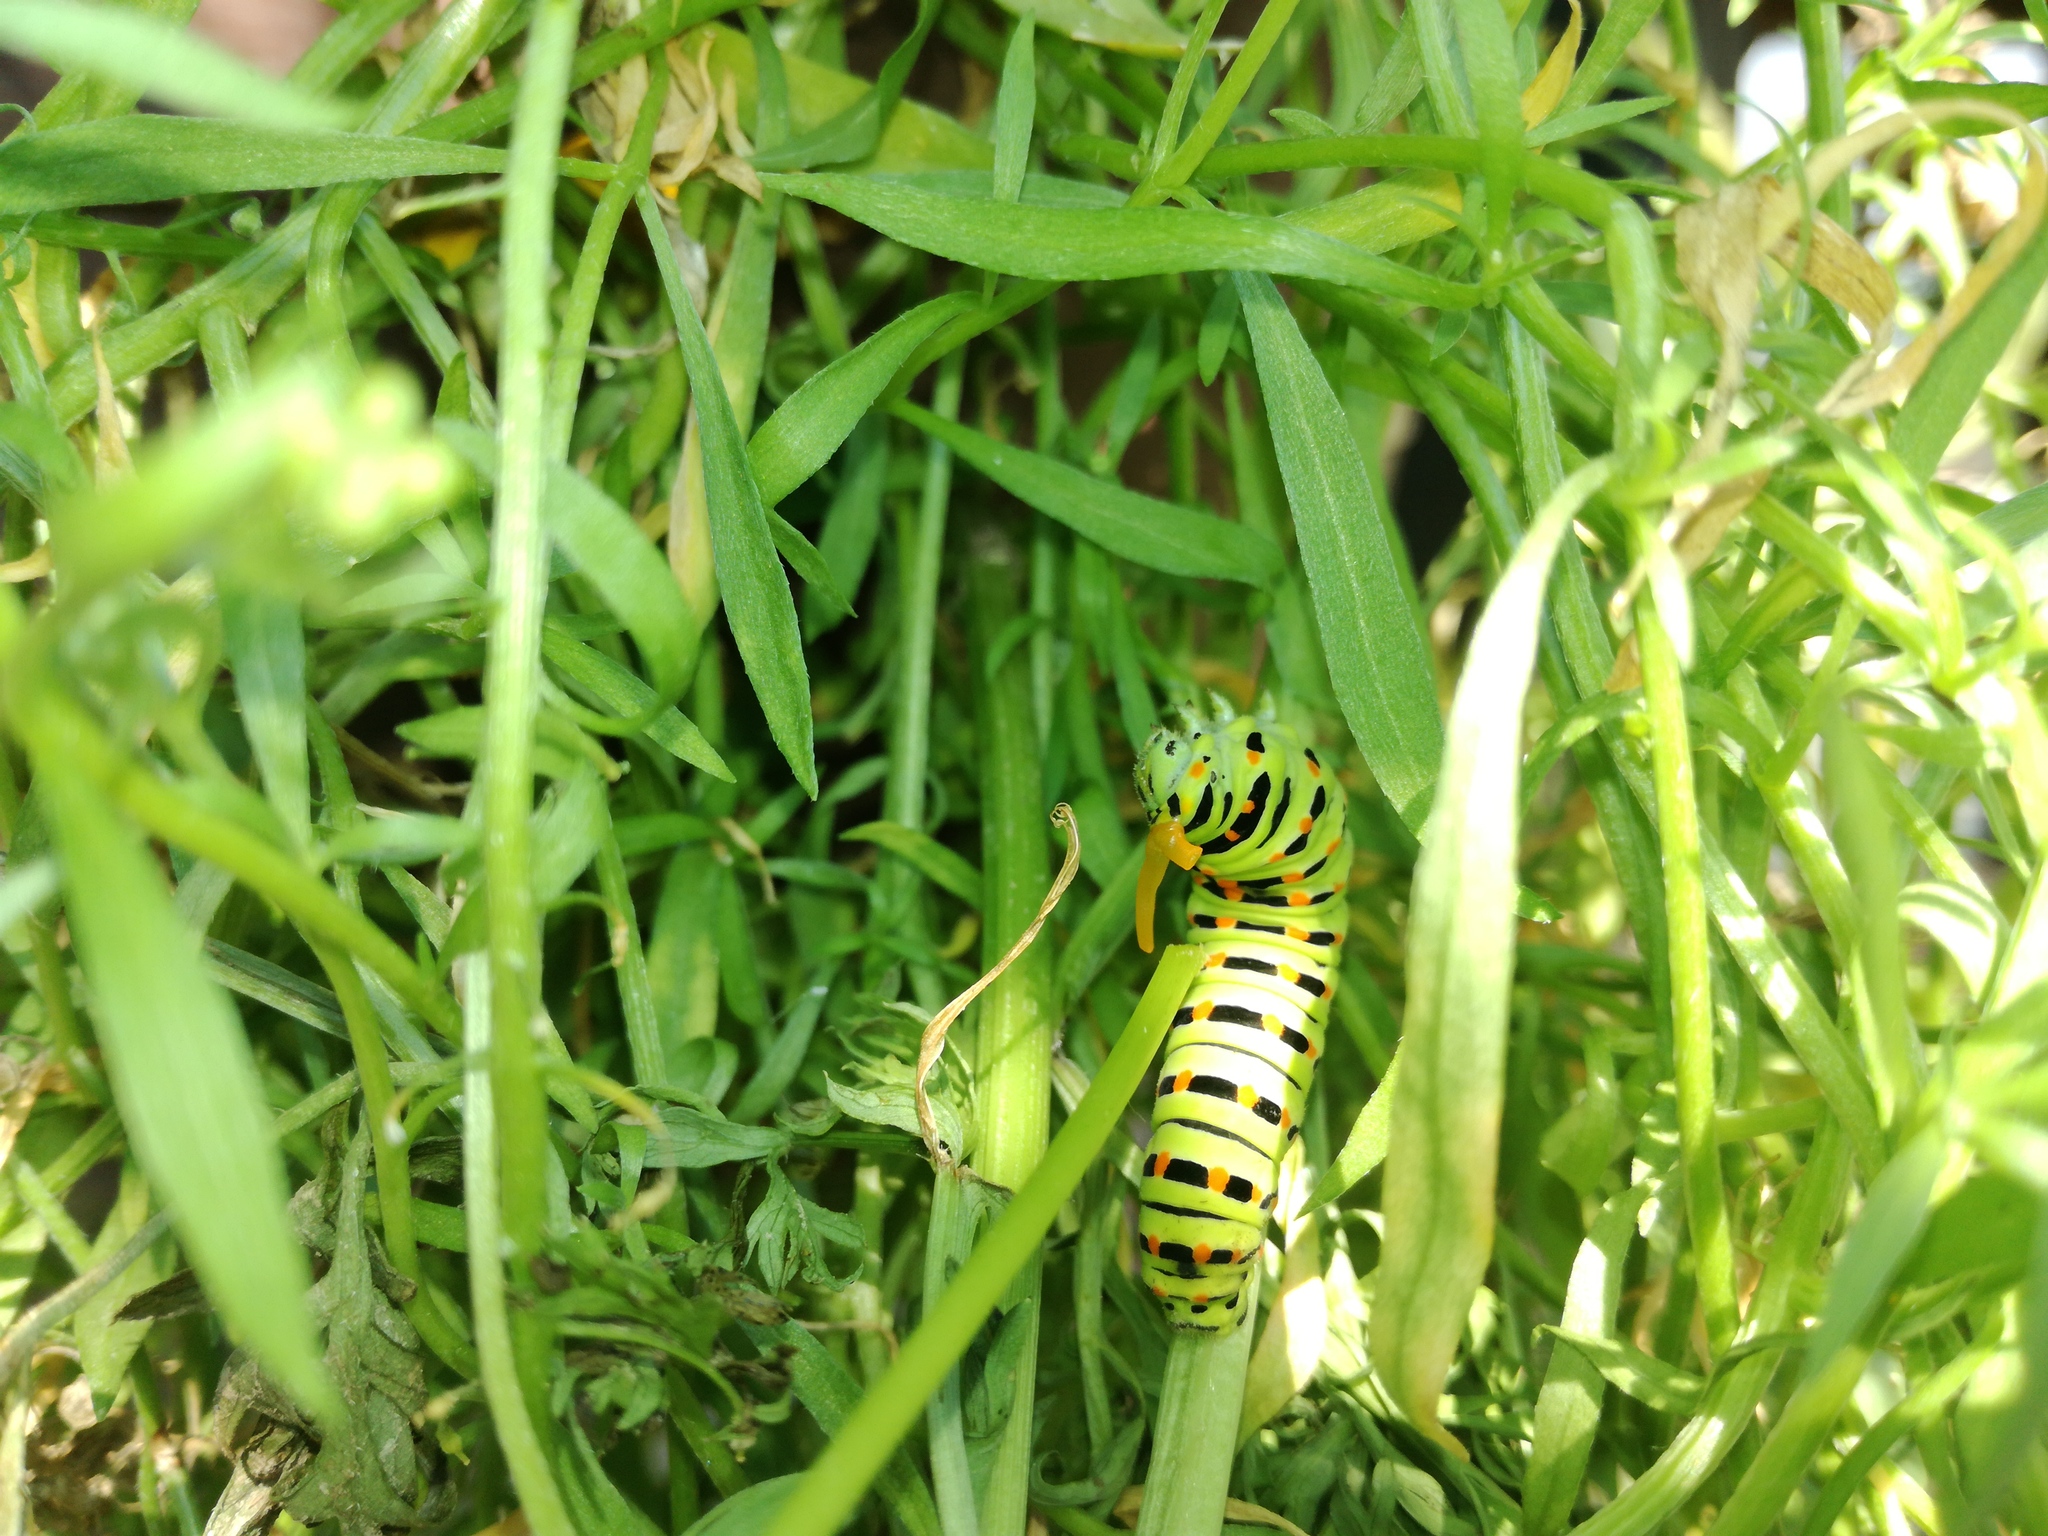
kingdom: Animalia
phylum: Arthropoda
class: Insecta
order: Lepidoptera
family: Papilionidae
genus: Papilio
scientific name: Papilio machaon
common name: Swallowtail
